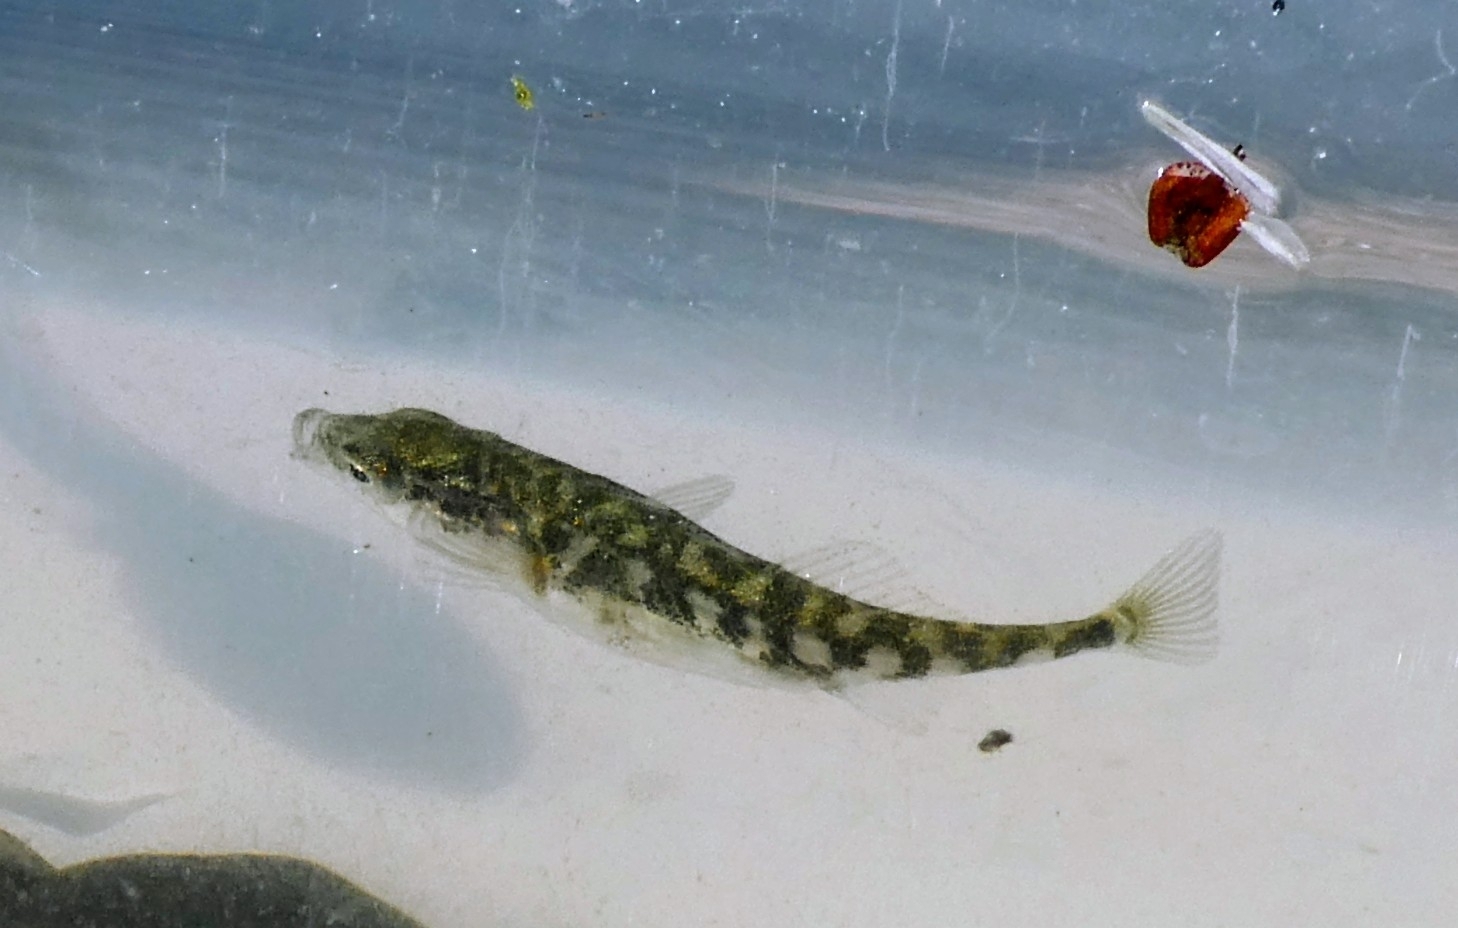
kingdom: Animalia
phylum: Chordata
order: Gasterosteiformes
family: Gasterosteidae
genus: Gasterosteus
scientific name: Gasterosteus aculeatus
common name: Three-spined stickleback
